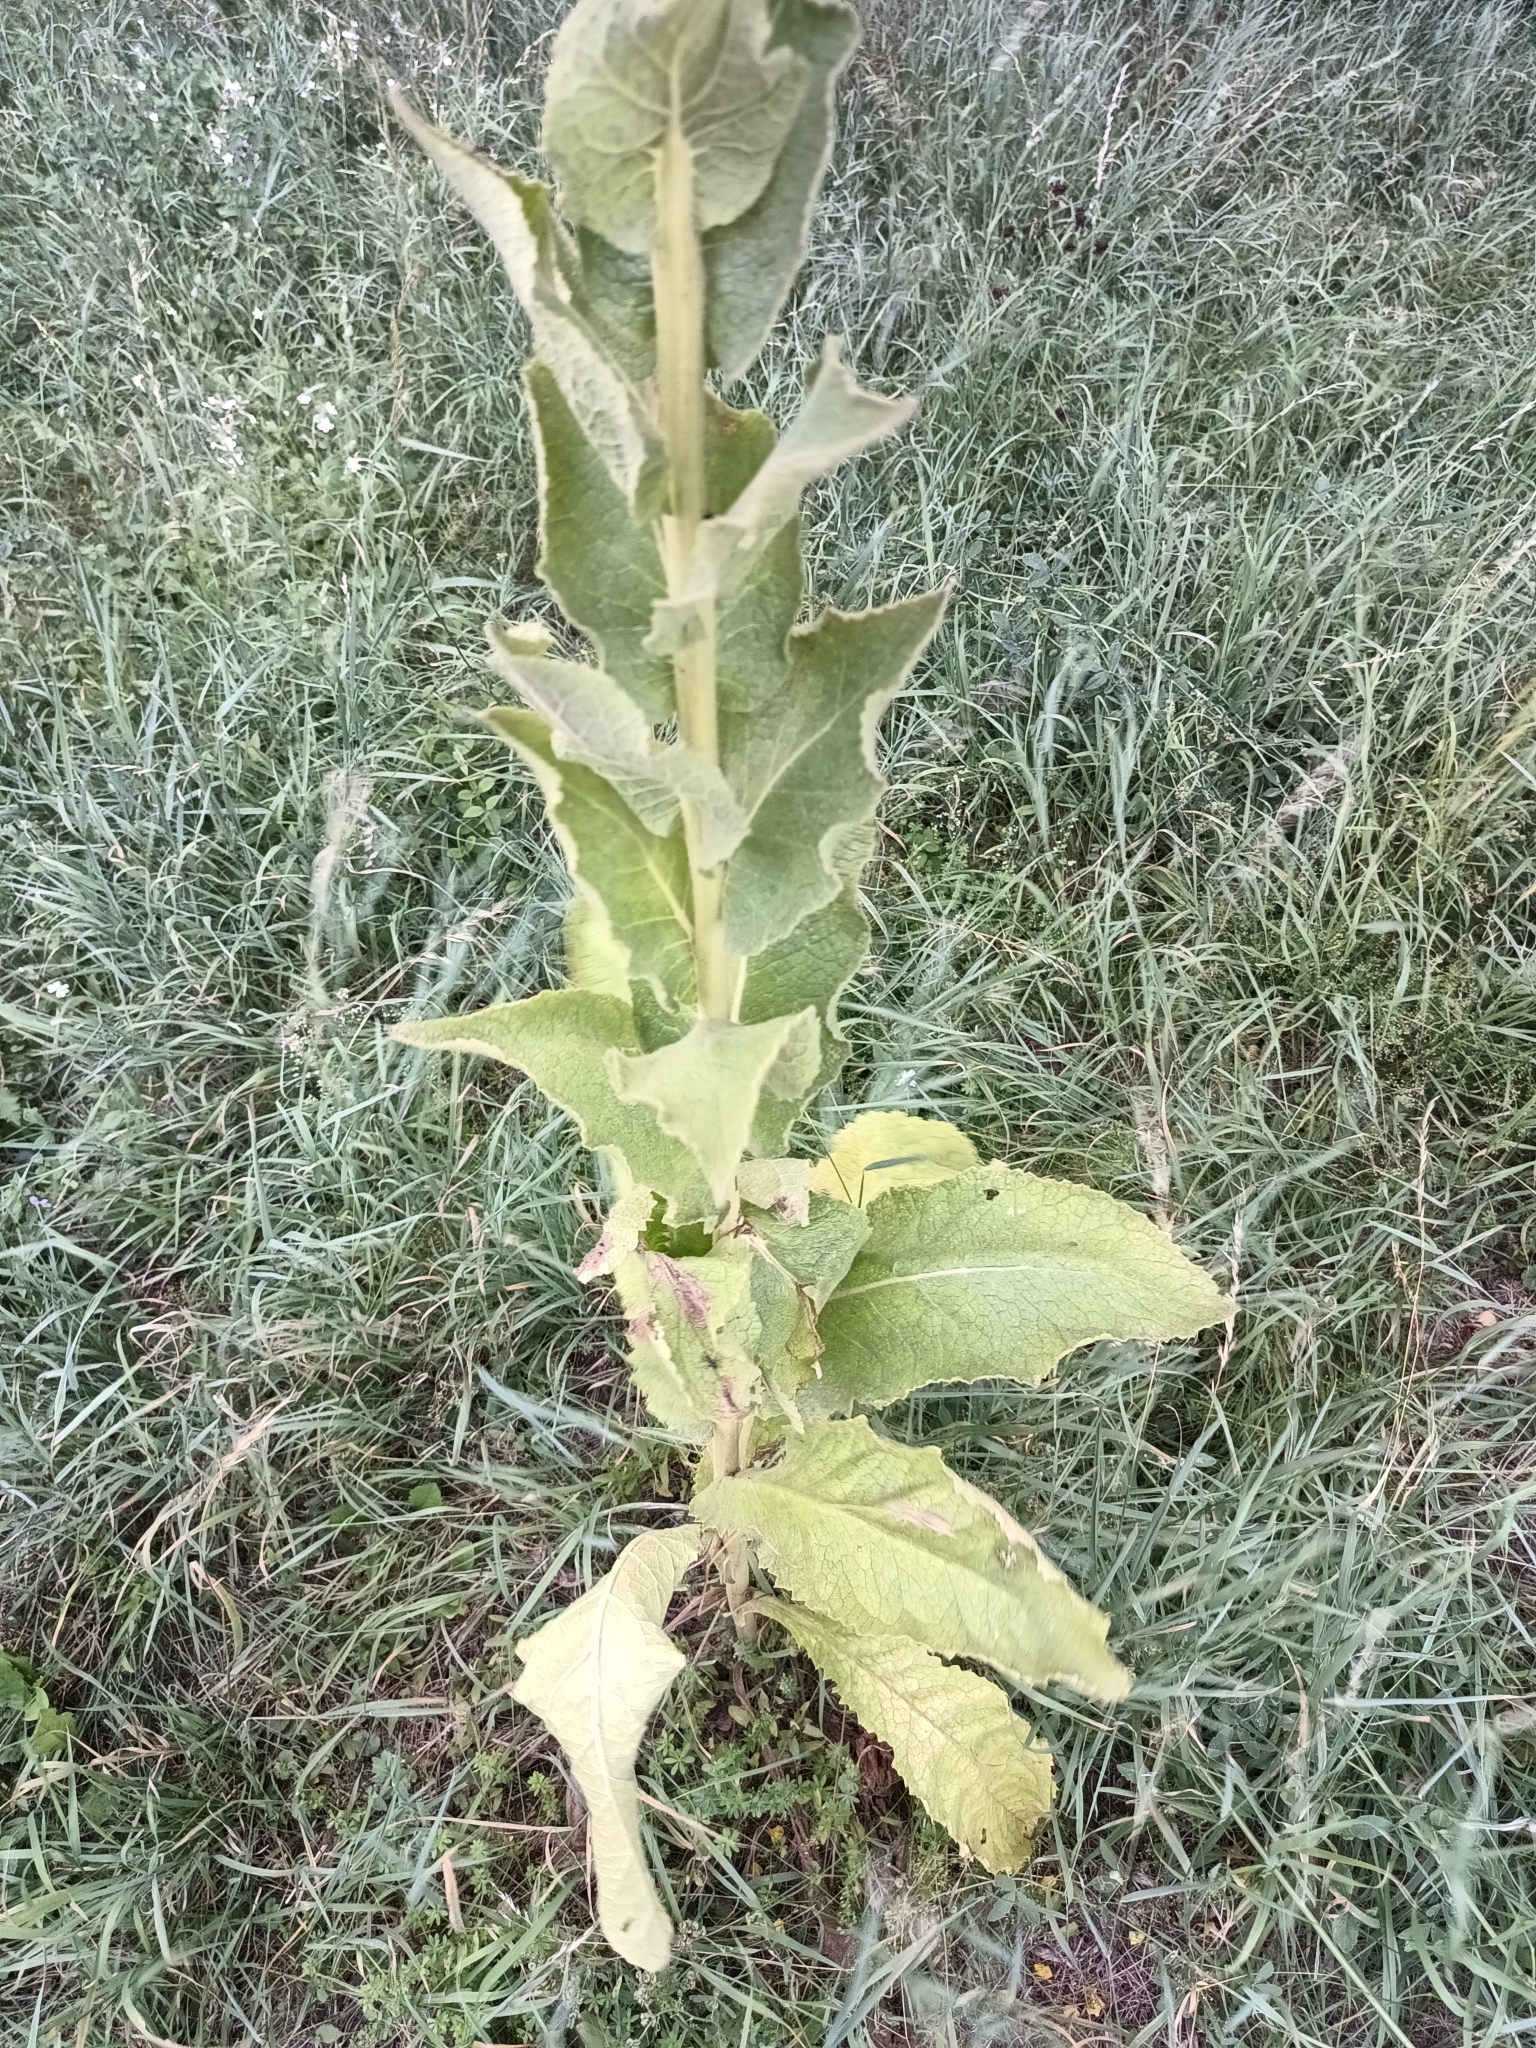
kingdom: Plantae
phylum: Tracheophyta
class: Magnoliopsida
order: Lamiales
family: Scrophulariaceae
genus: Verbascum
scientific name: Verbascum phlomoides
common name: Orange mullein
